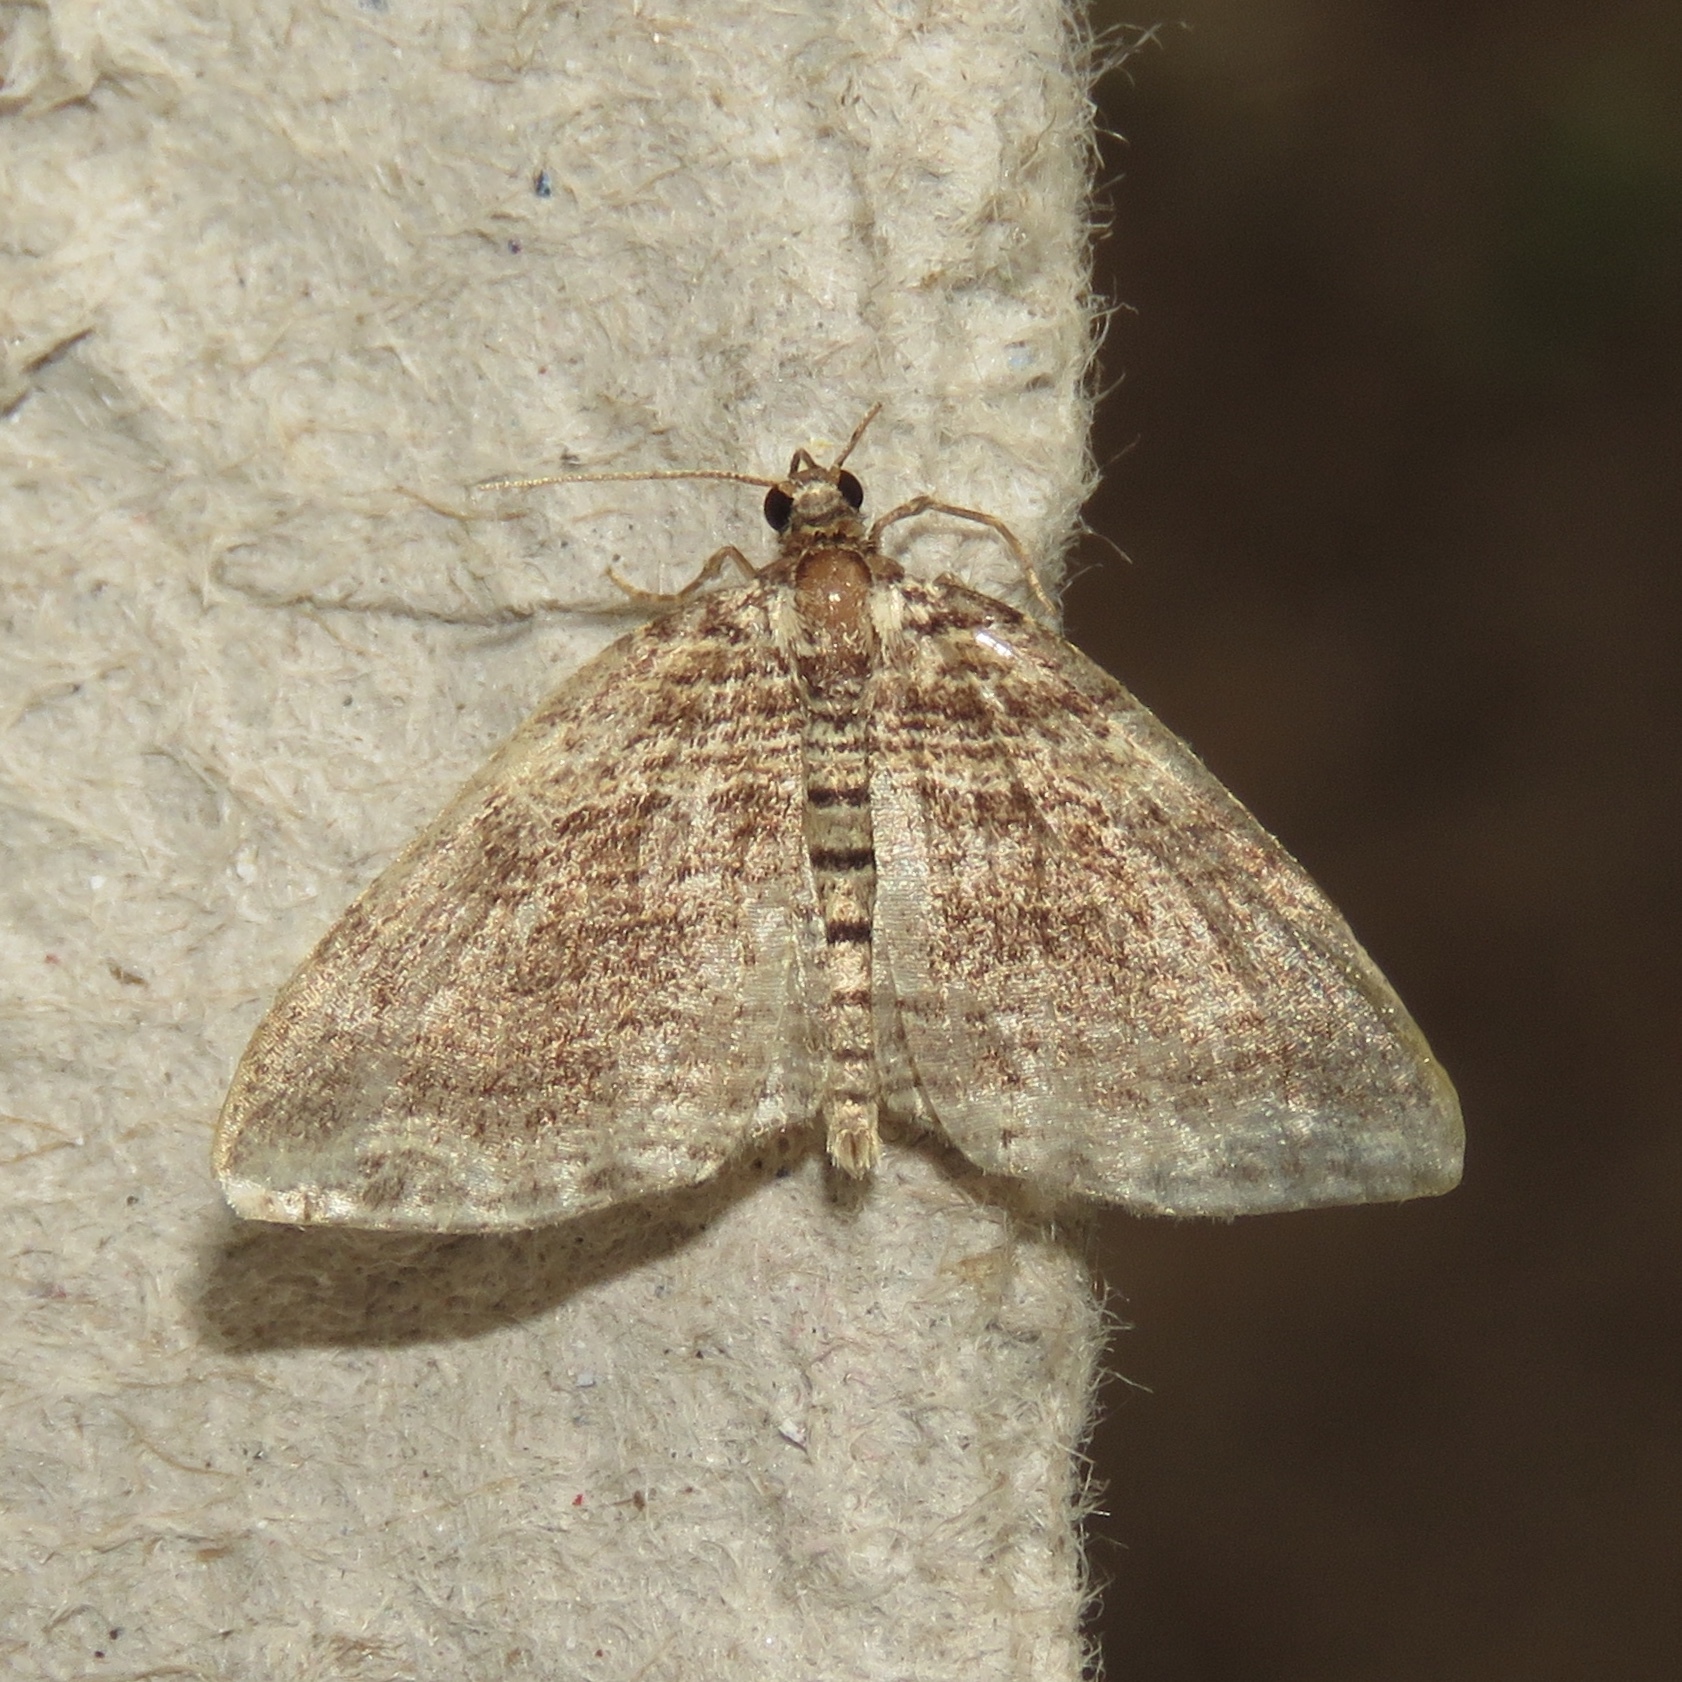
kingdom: Animalia
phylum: Arthropoda
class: Insecta
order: Lepidoptera
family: Geometridae
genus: Anticlea
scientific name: Anticlea multiferata
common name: Many-lined carpet
